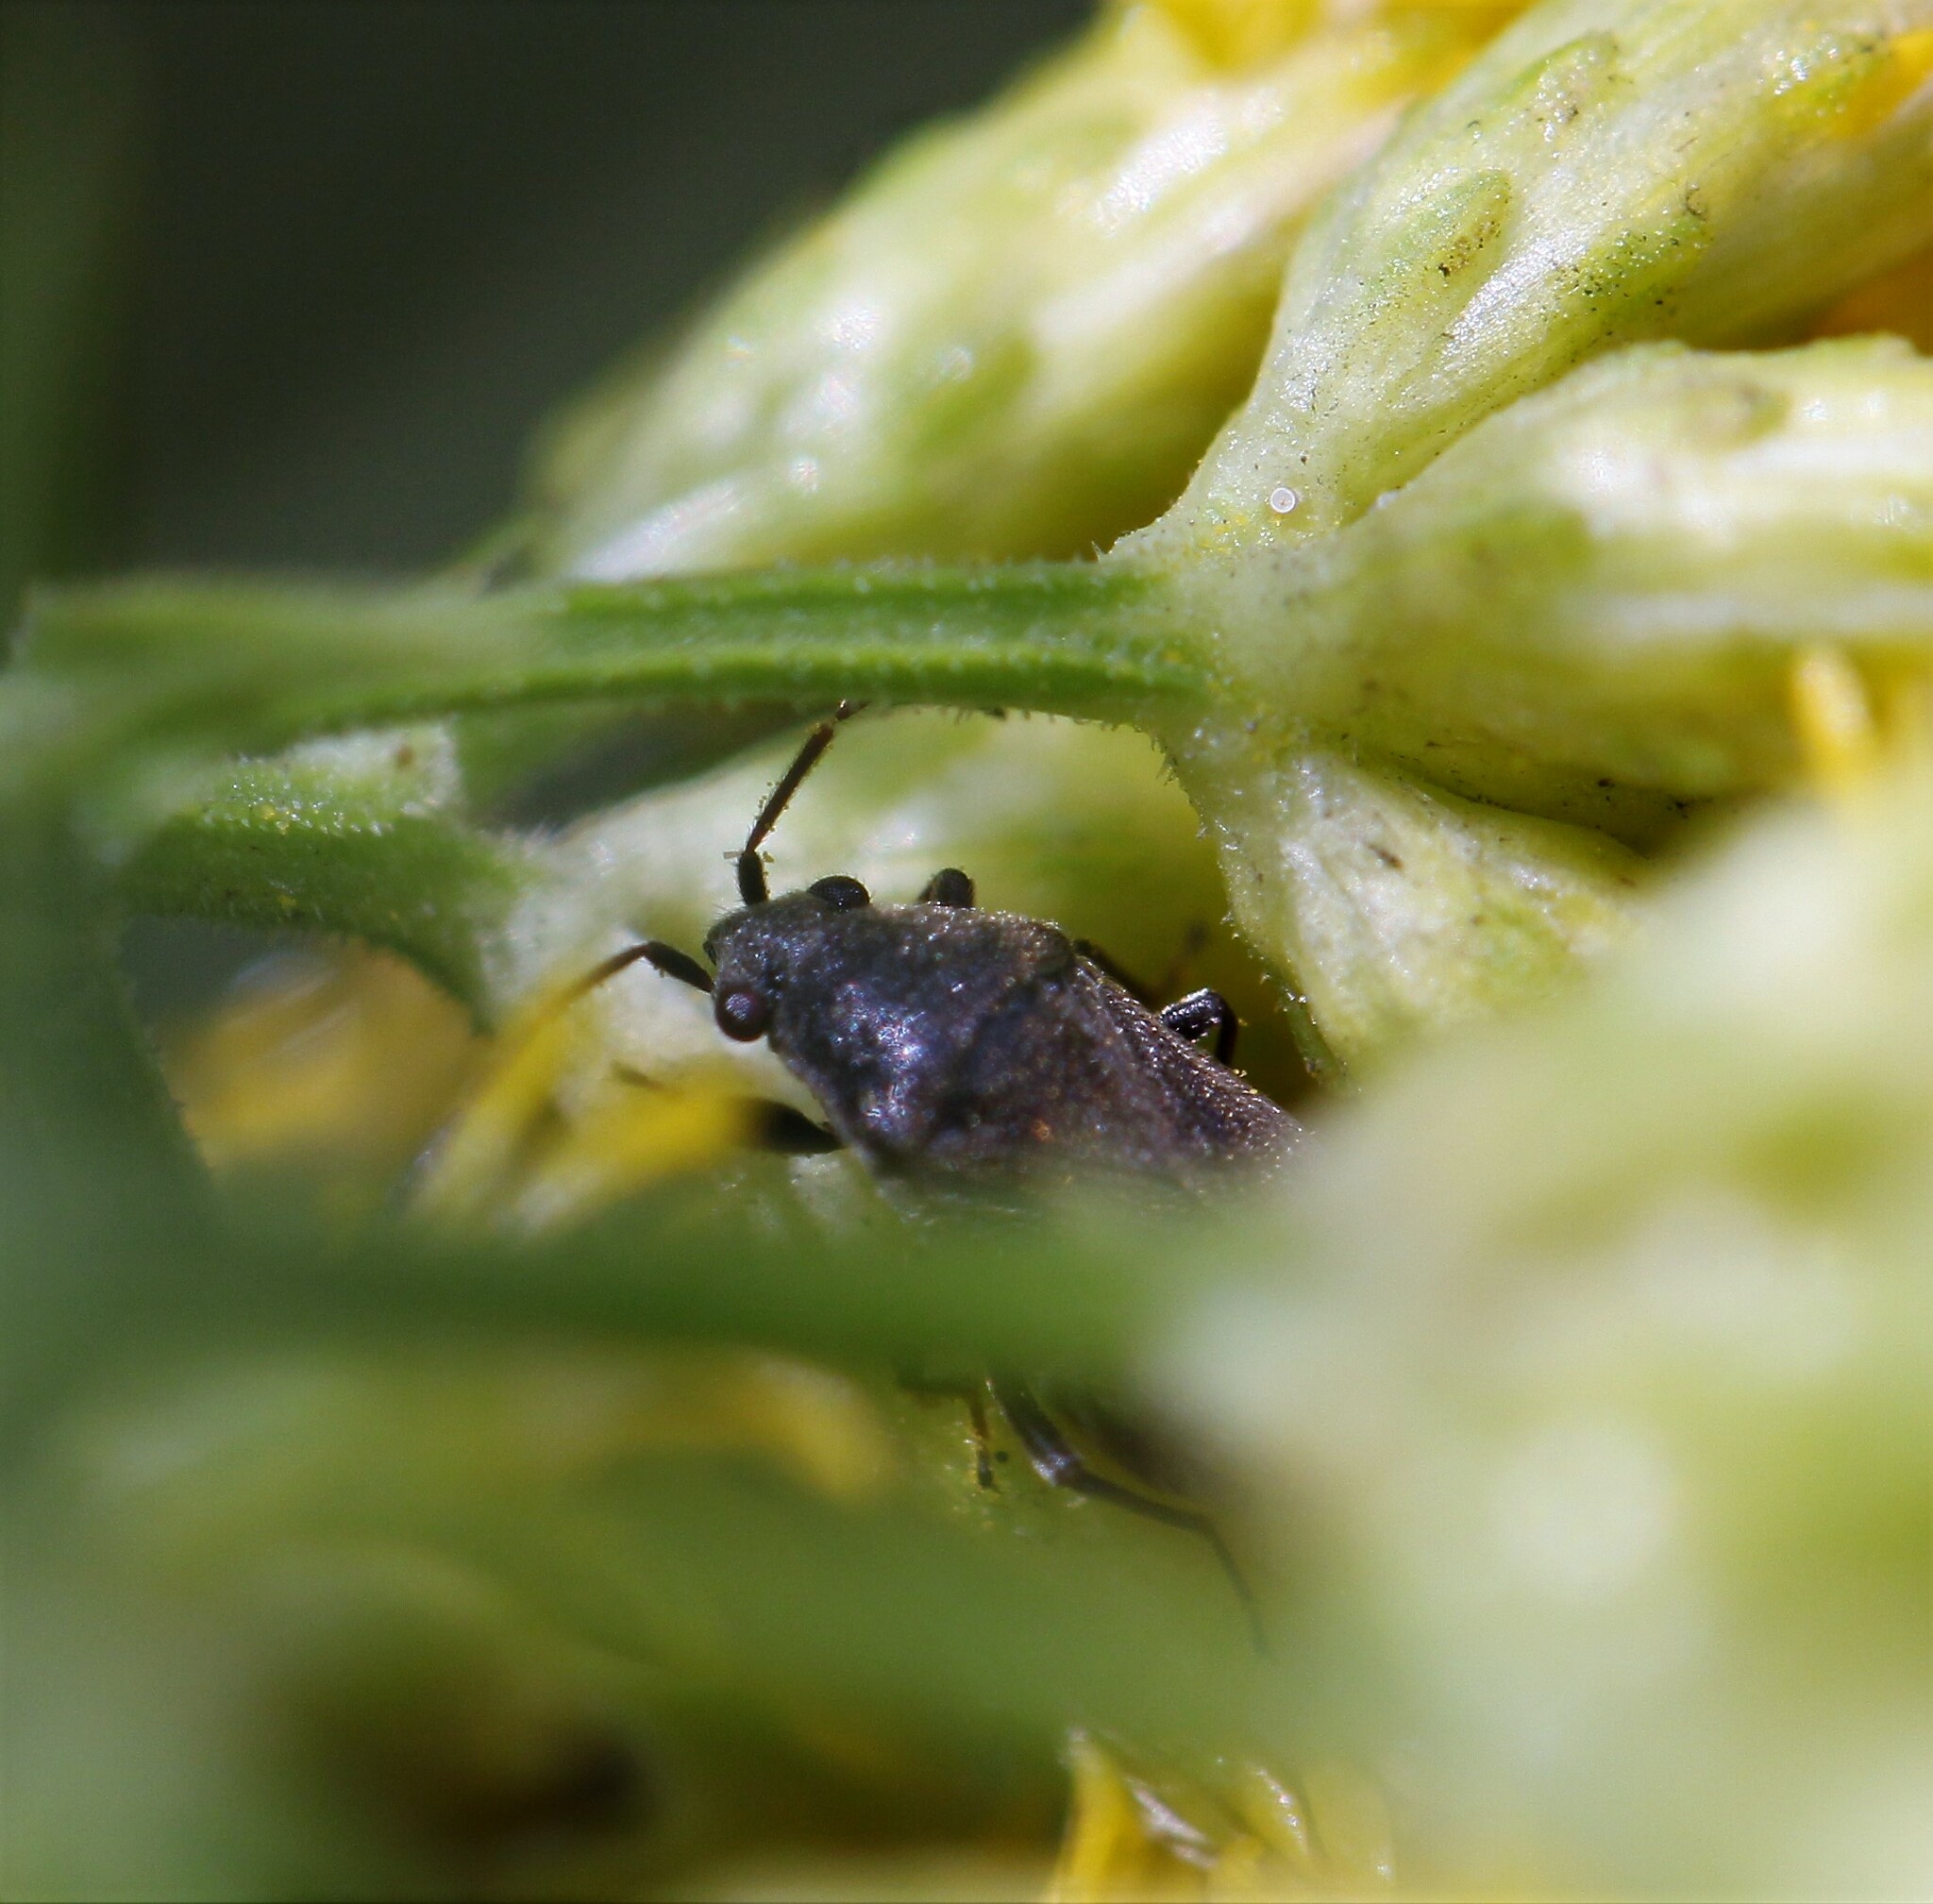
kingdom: Animalia
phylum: Arthropoda
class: Insecta
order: Hemiptera
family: Rhyparochromidae
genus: Stygnocoris
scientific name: Stygnocoris rusticus
